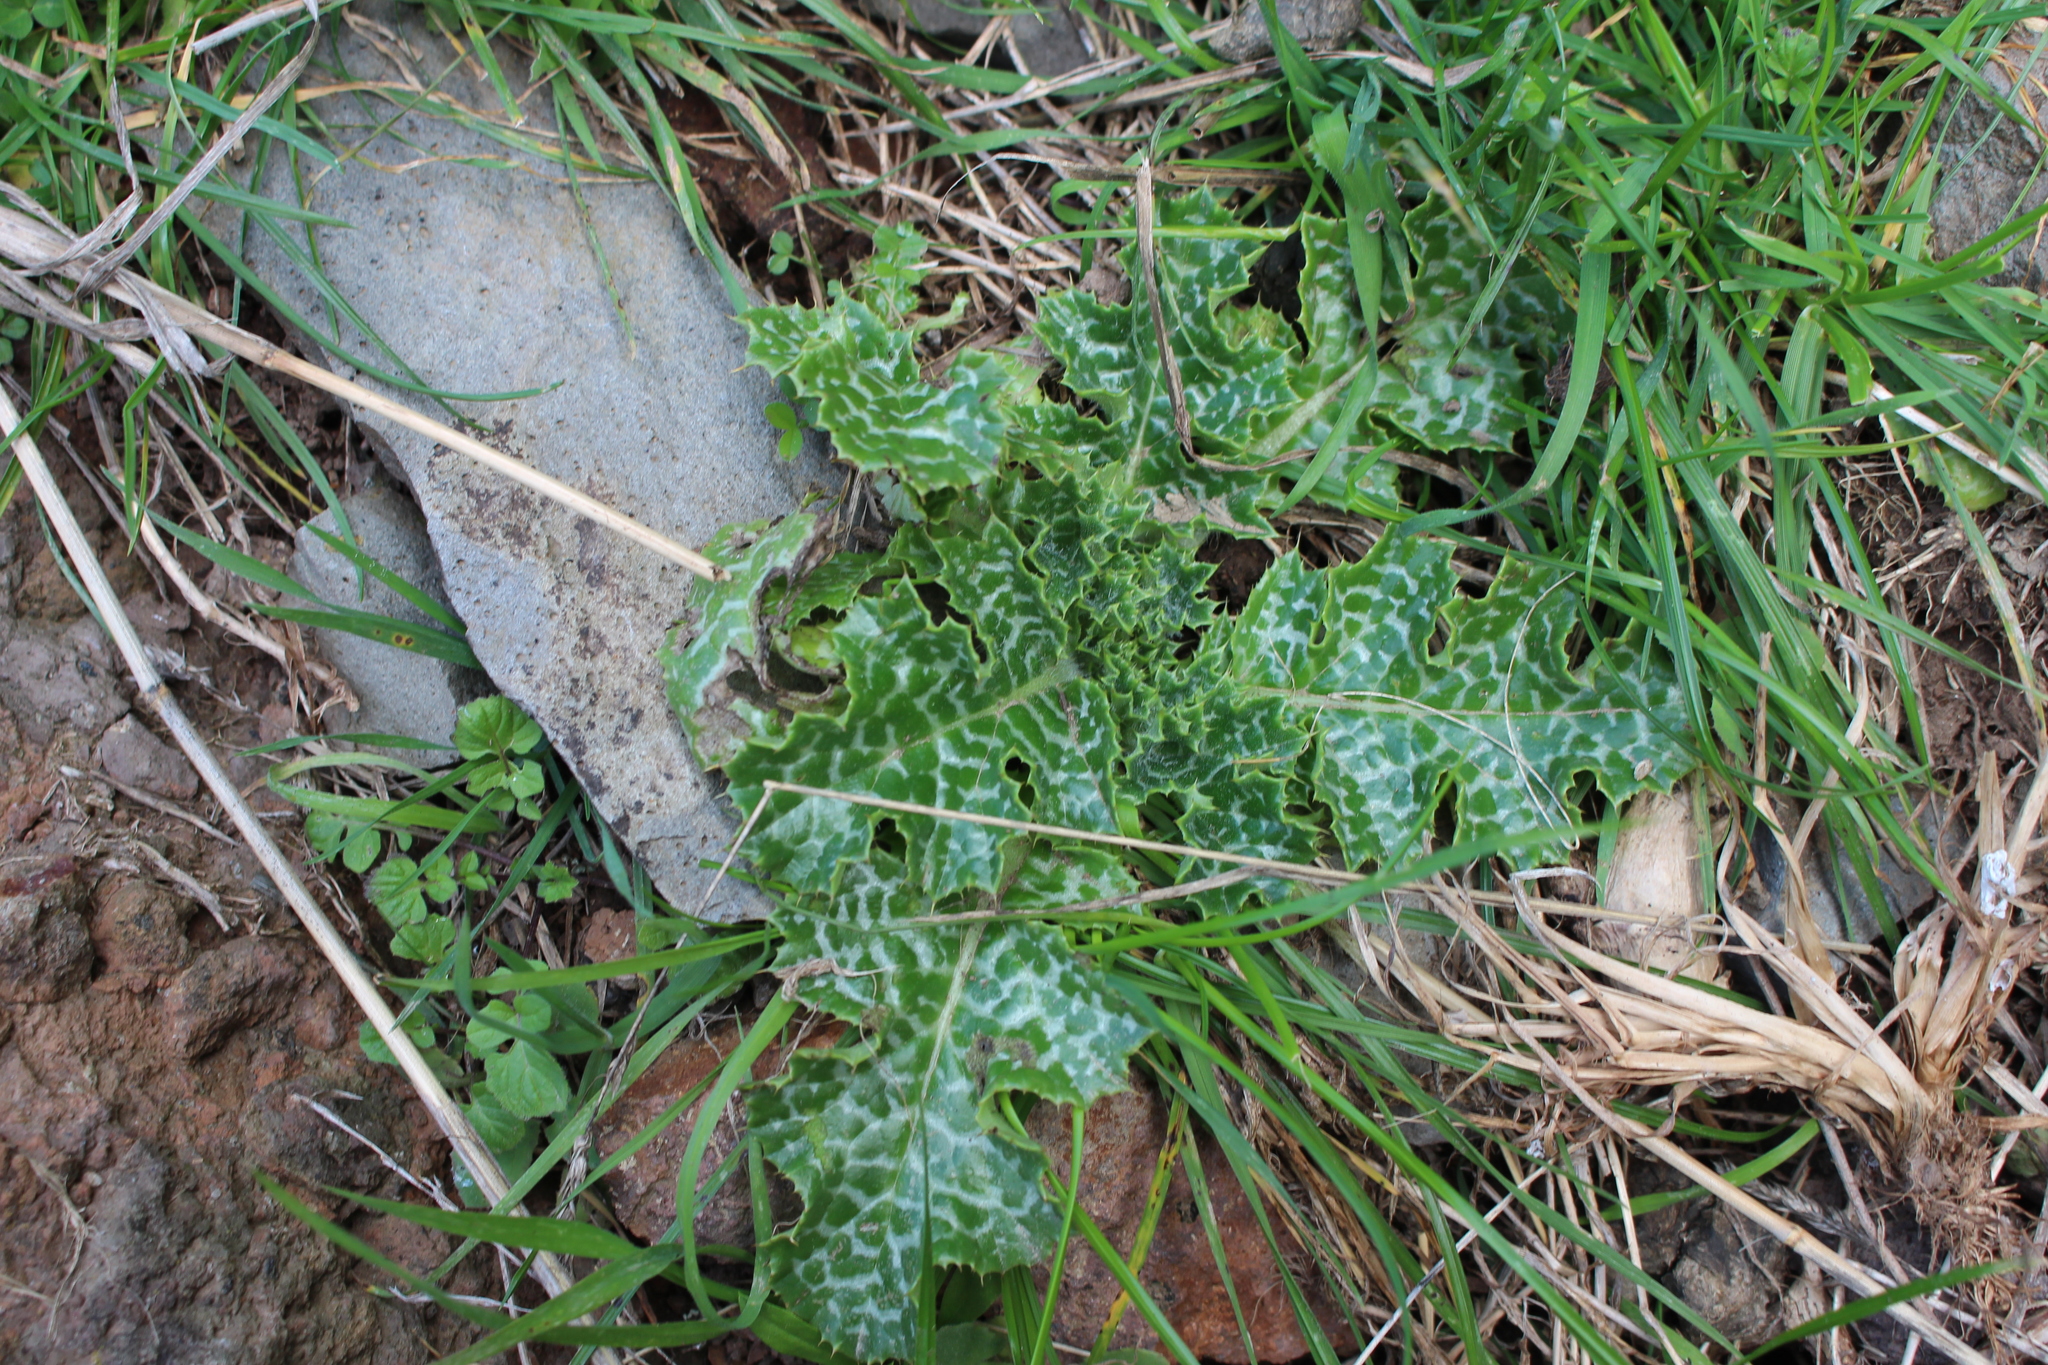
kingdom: Plantae
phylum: Tracheophyta
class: Magnoliopsida
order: Asterales
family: Asteraceae
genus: Silybum
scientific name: Silybum marianum
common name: Milk thistle
